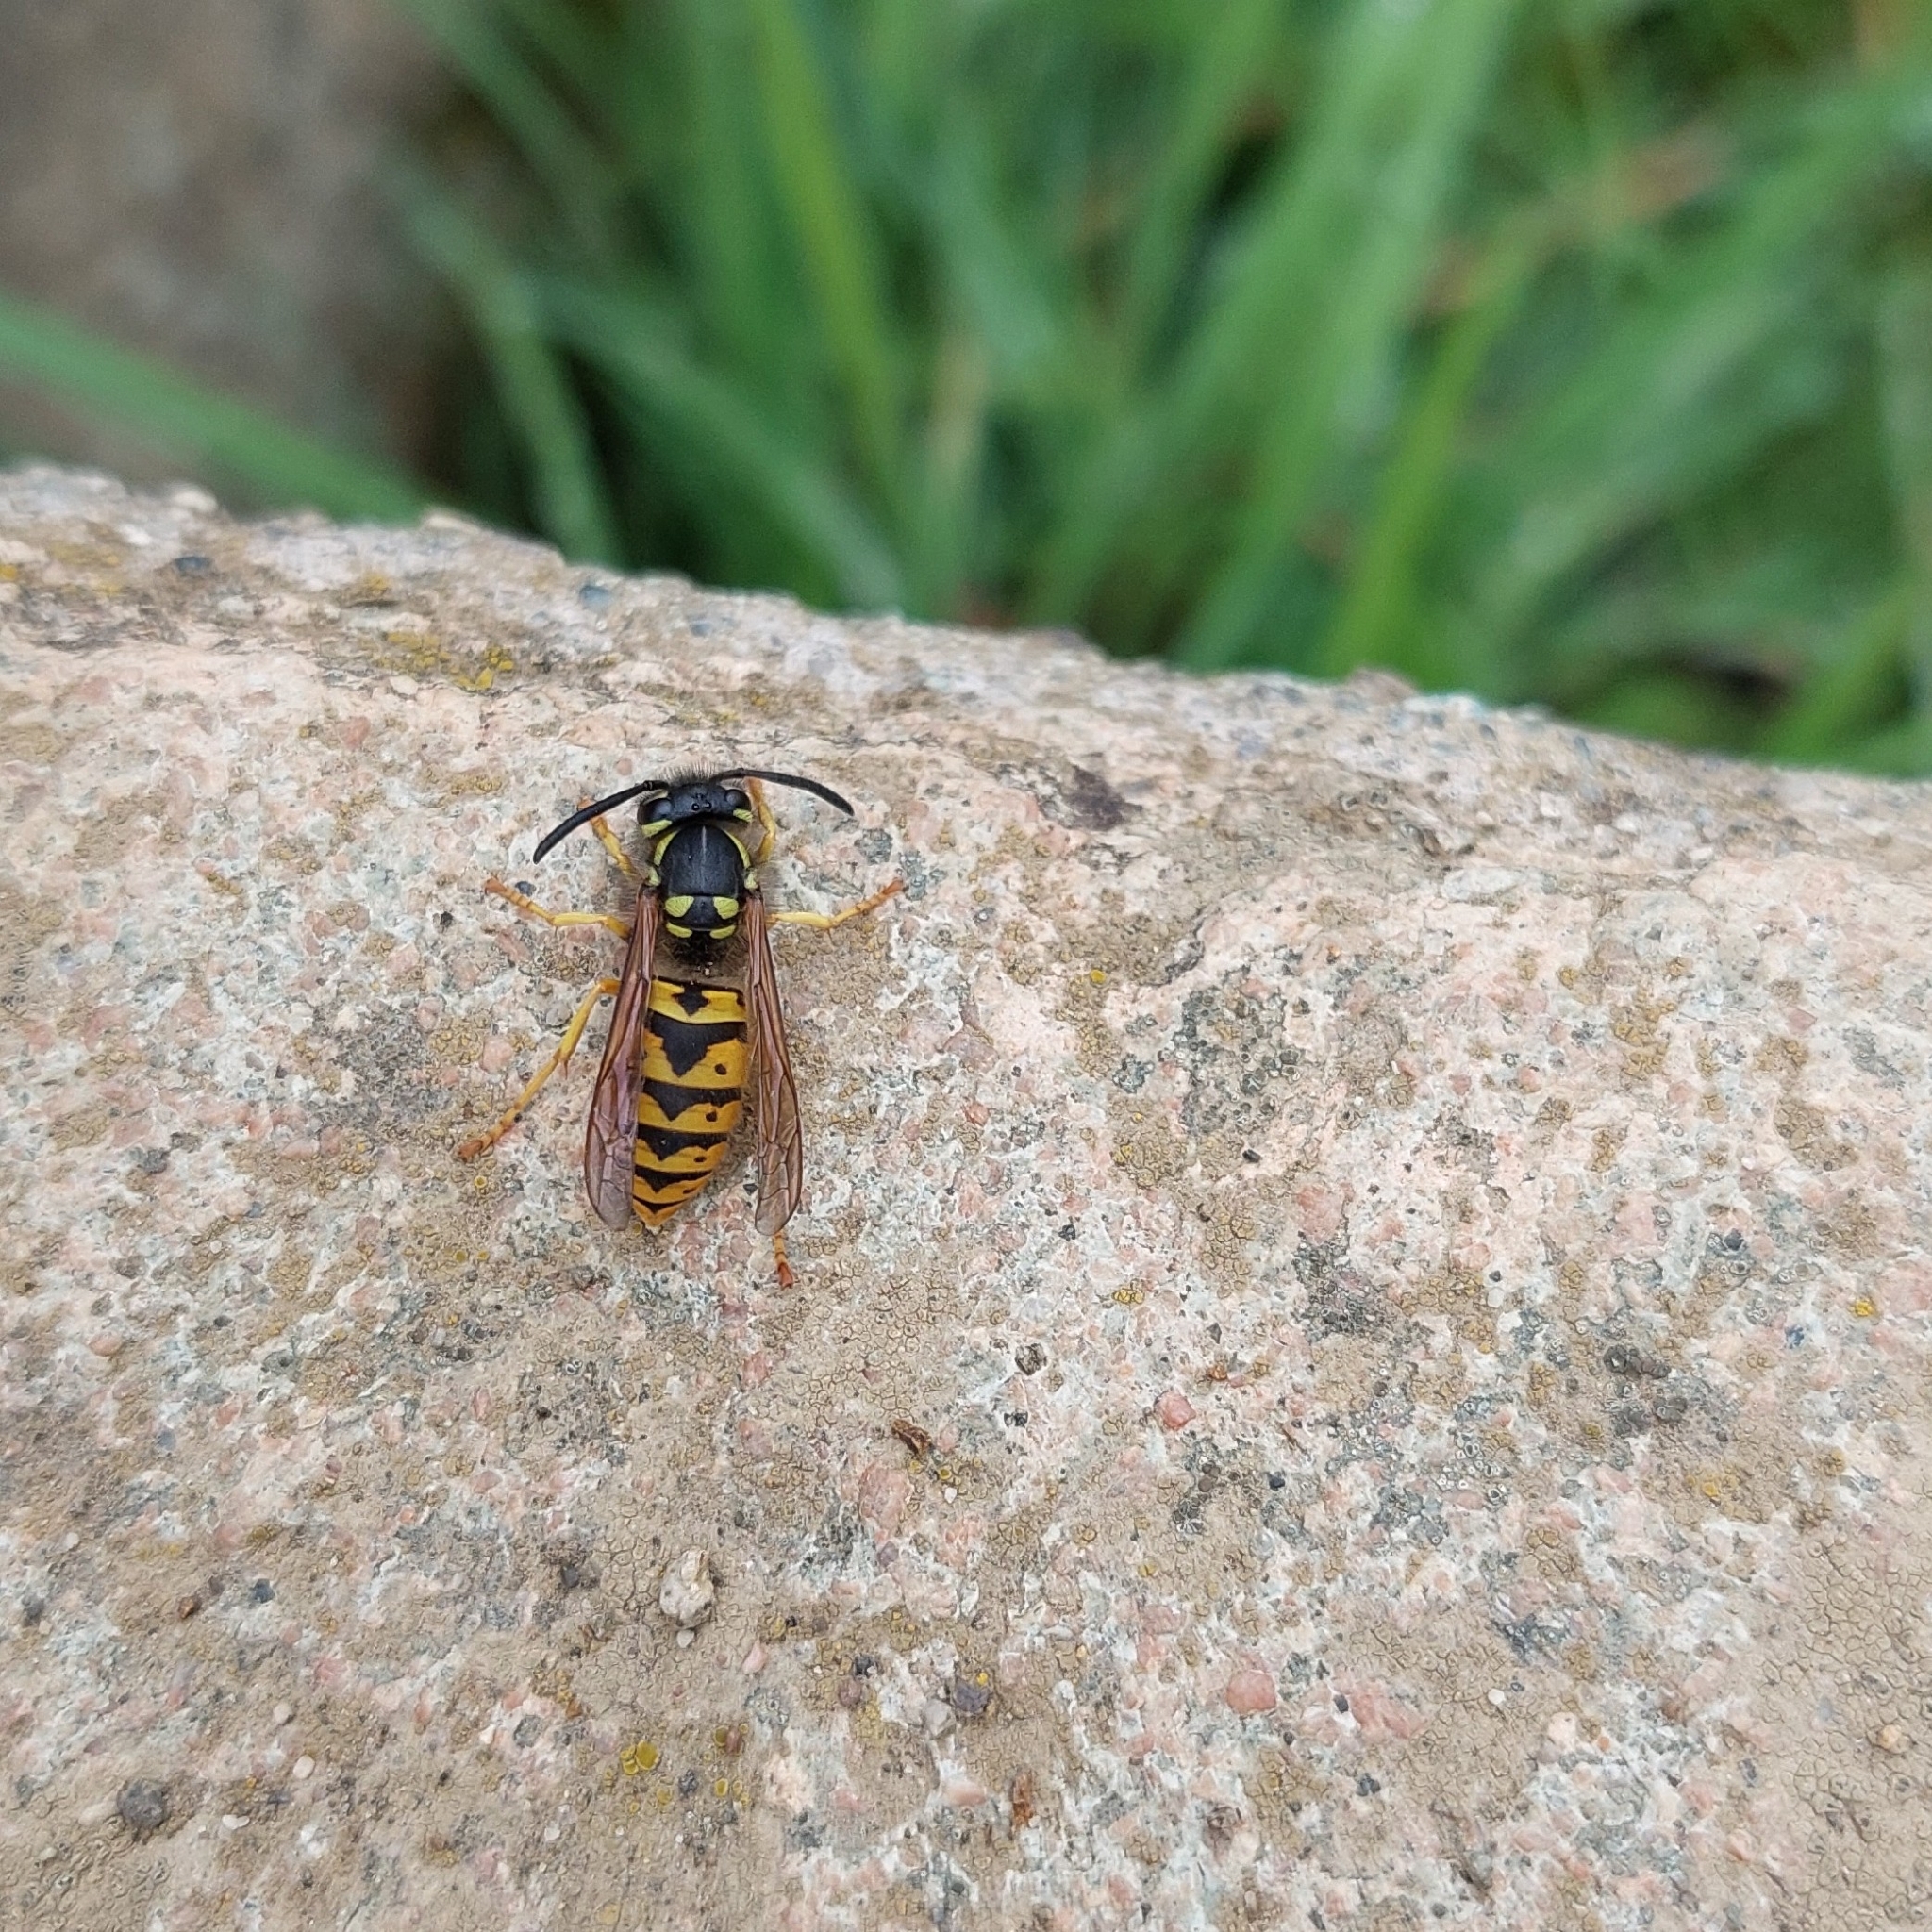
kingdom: Animalia
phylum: Arthropoda
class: Insecta
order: Hymenoptera
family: Vespidae
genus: Vespula
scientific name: Vespula germanica
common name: German wasp
